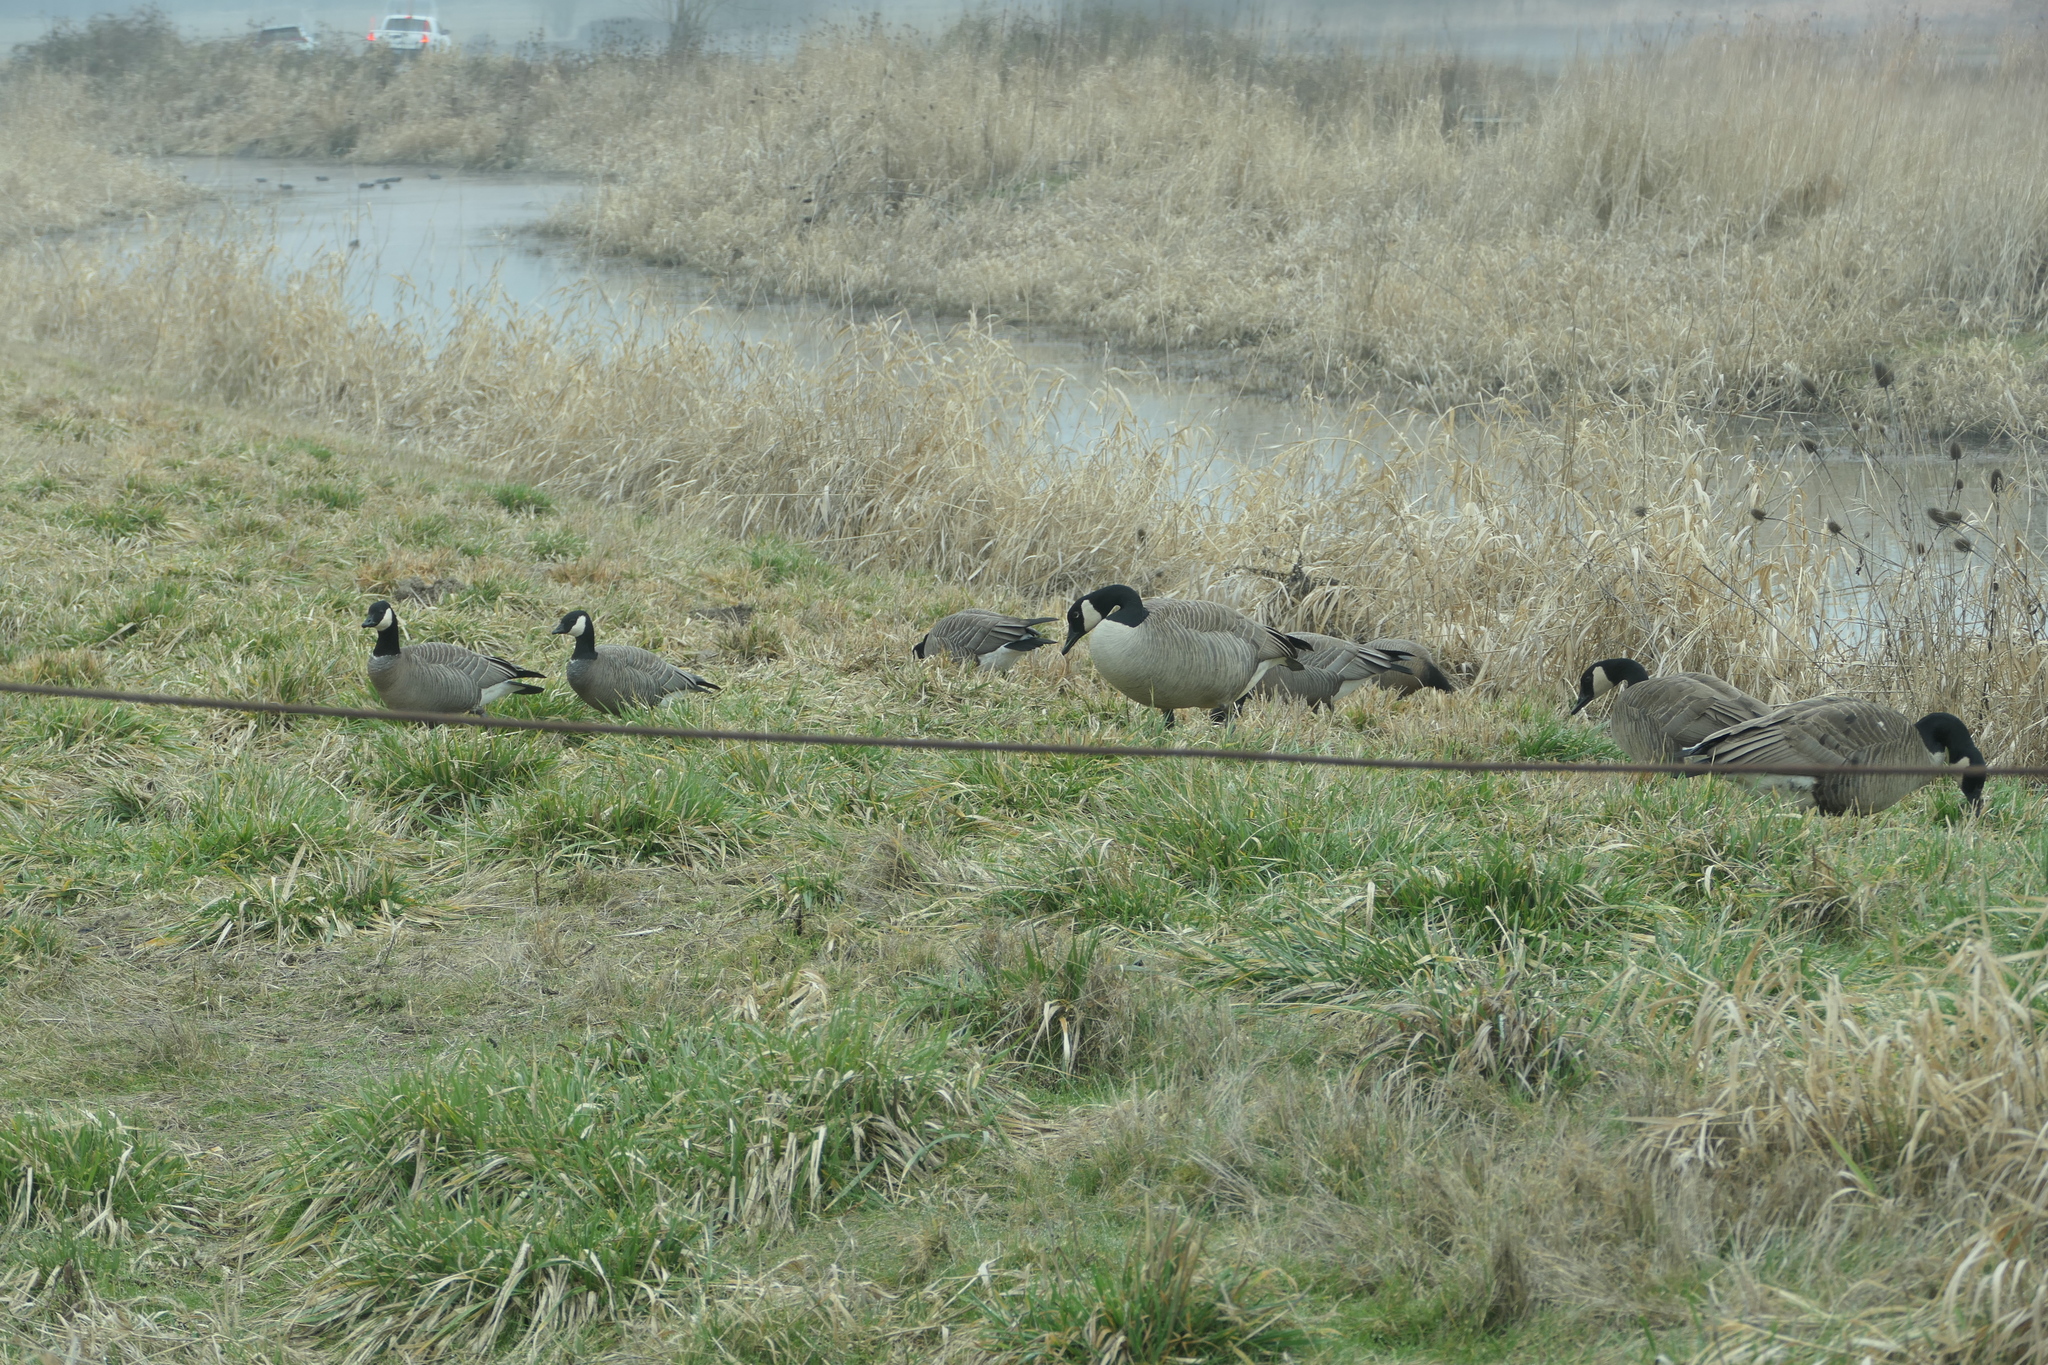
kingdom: Animalia
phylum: Chordata
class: Aves
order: Anseriformes
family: Anatidae
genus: Branta
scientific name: Branta hutchinsii
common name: Cackling goose
